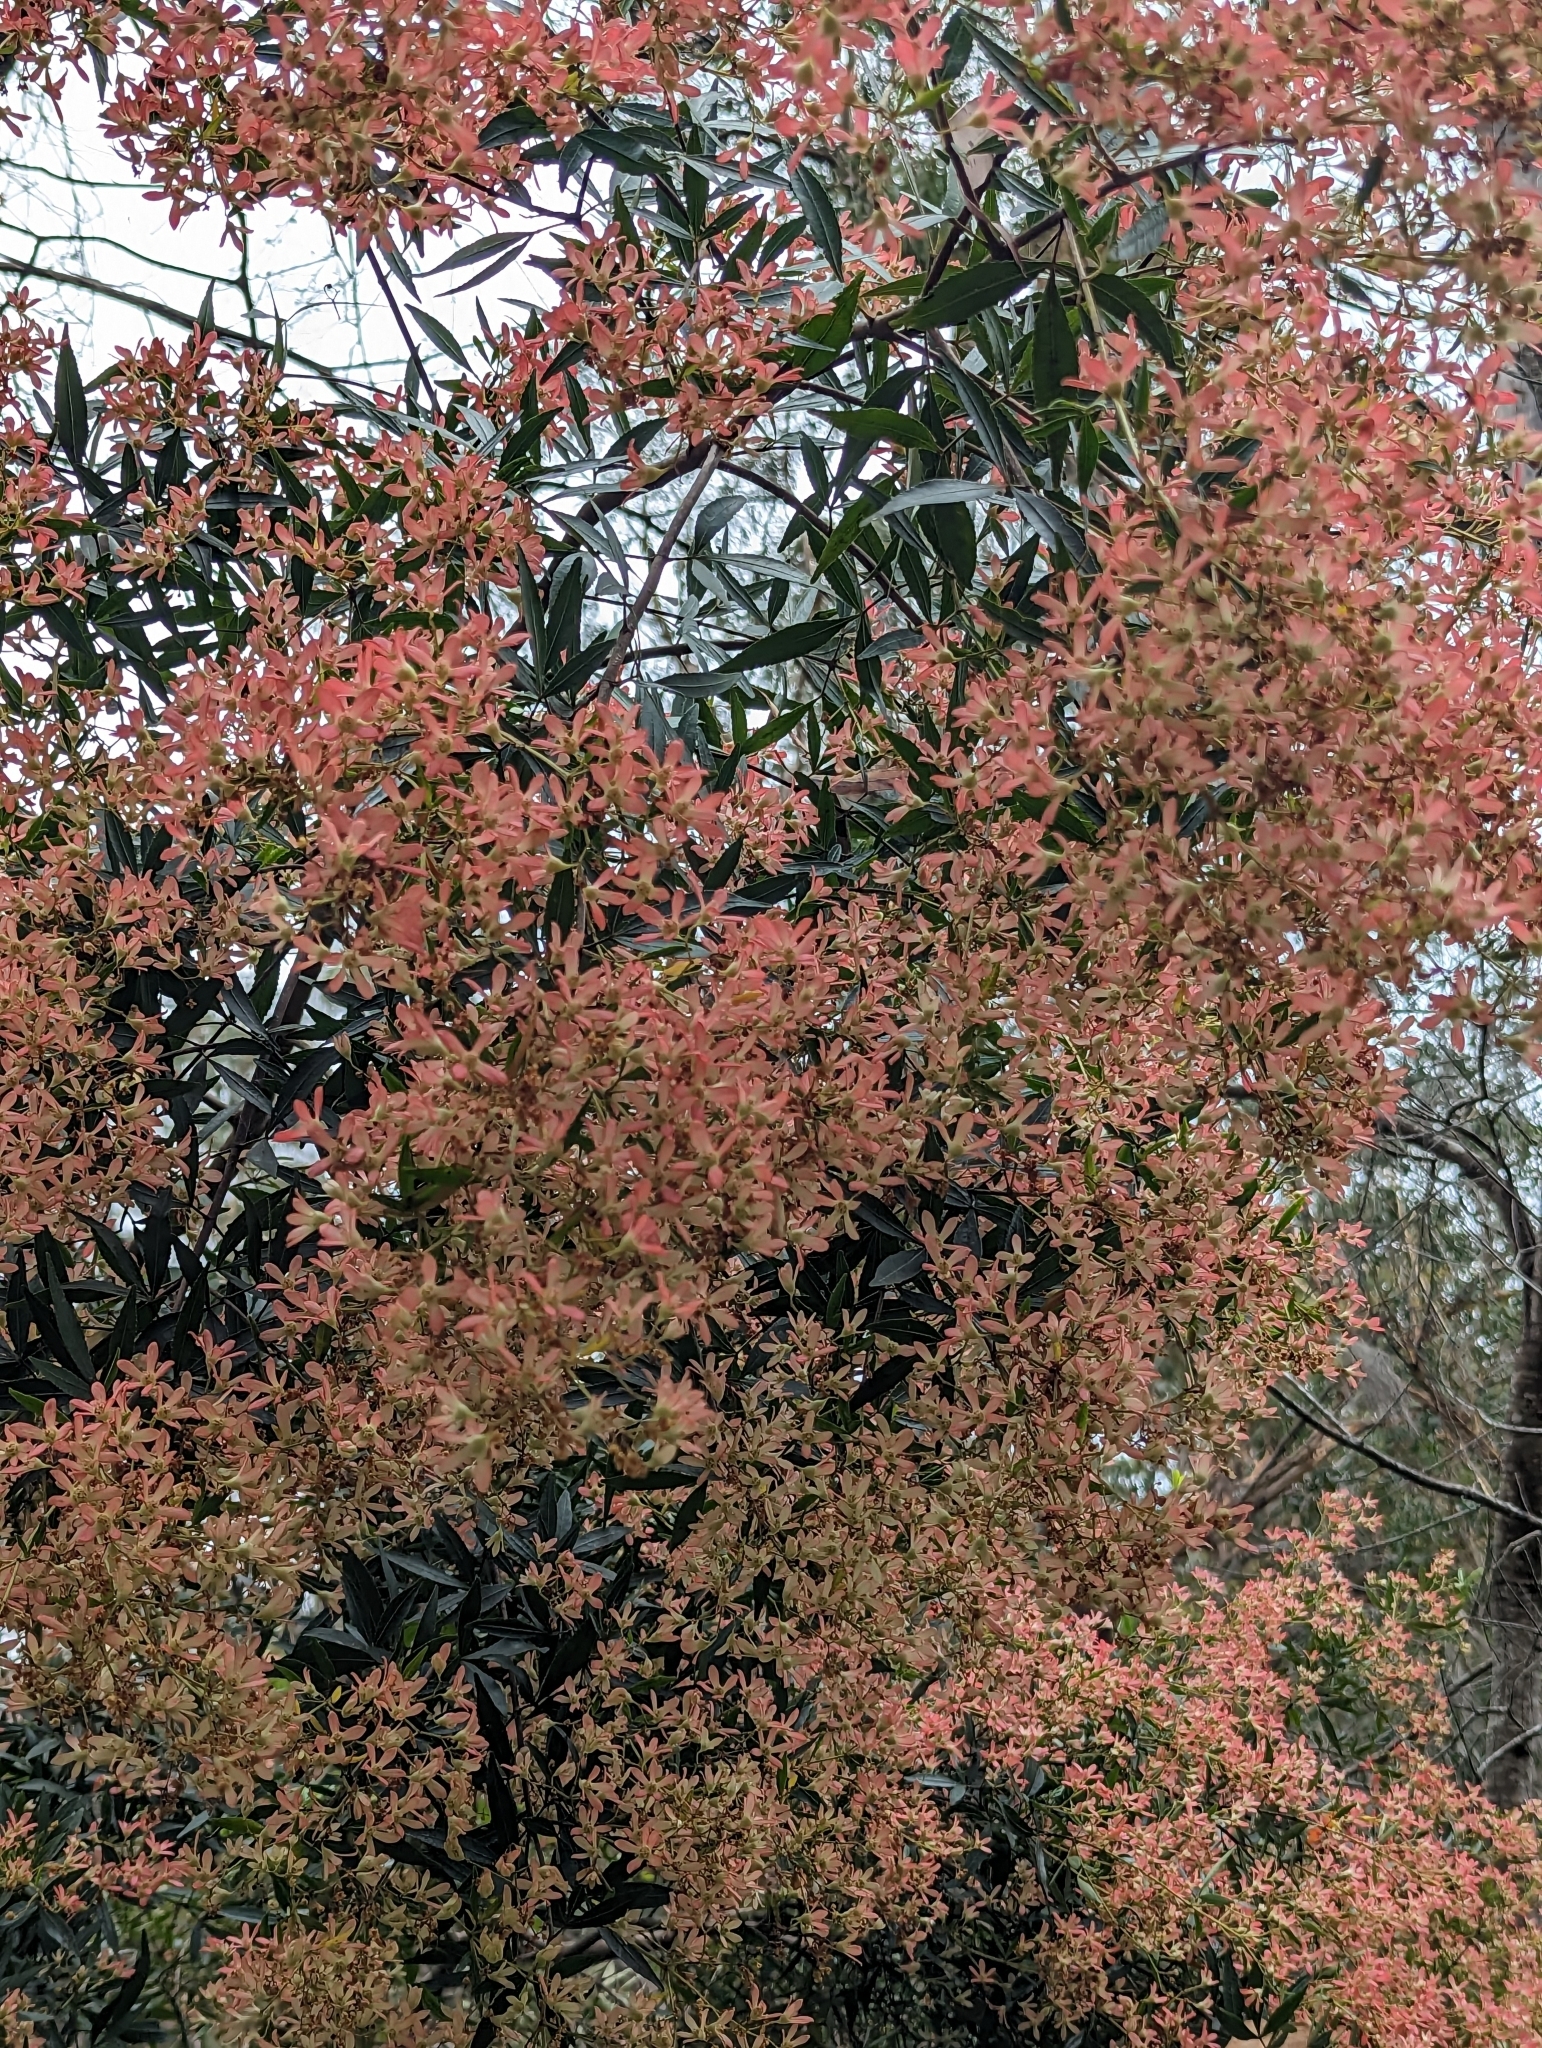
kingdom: Plantae
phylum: Tracheophyta
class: Magnoliopsida
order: Oxalidales
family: Cunoniaceae
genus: Ceratopetalum
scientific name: Ceratopetalum gummiferum
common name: Christmasbush
